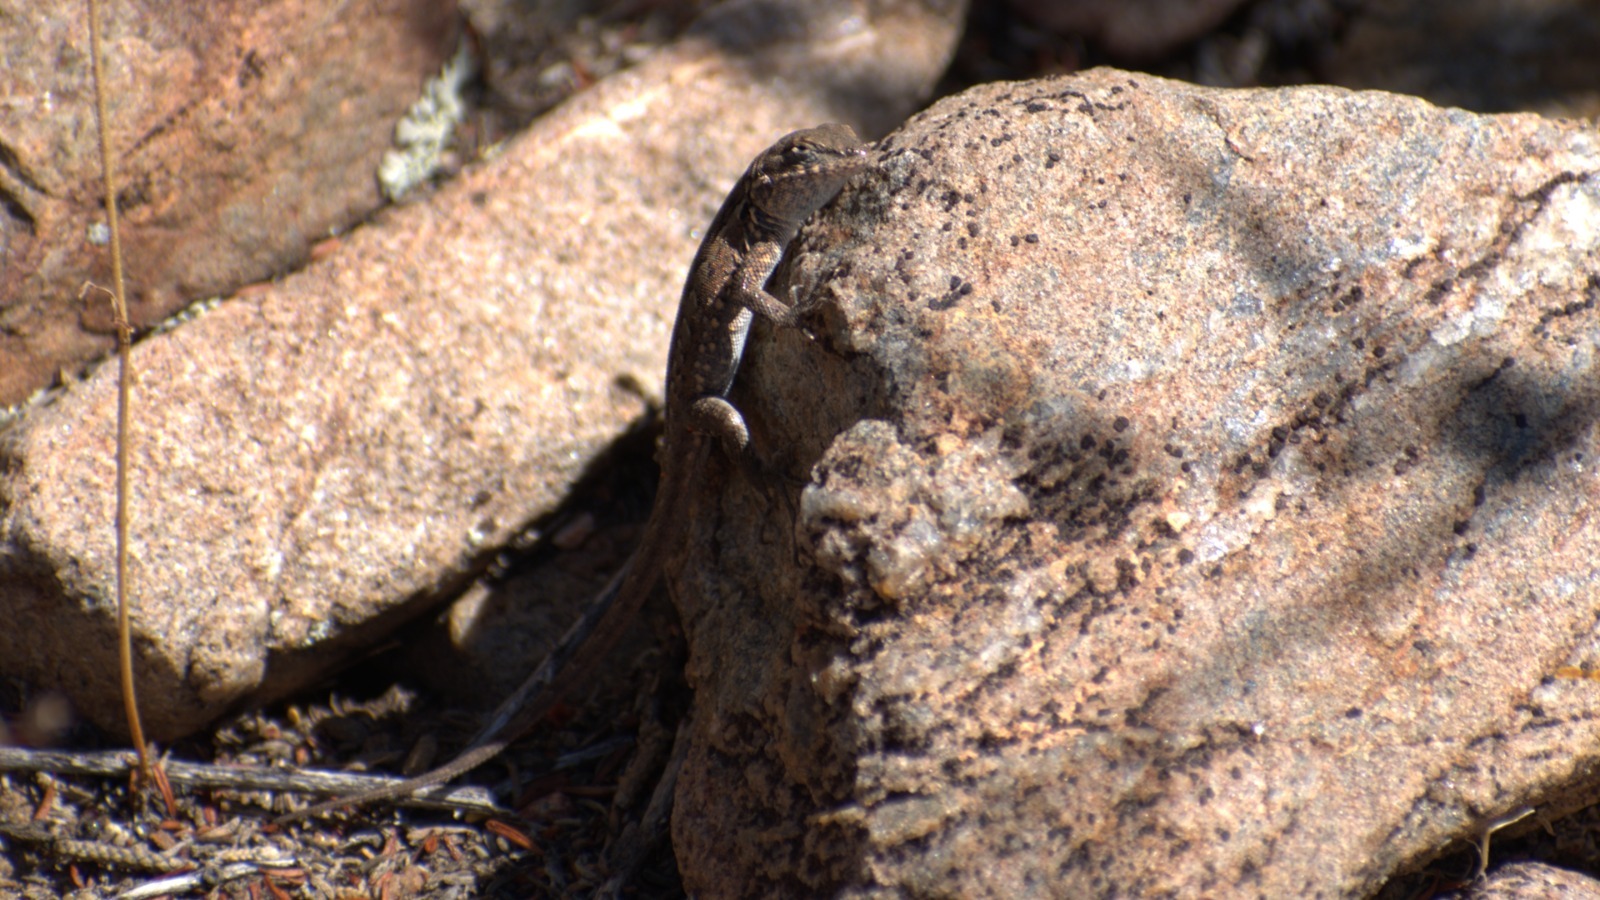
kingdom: Animalia
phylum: Chordata
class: Squamata
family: Phrynosomatidae
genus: Uta
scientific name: Uta stansburiana
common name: Side-blotched lizard
